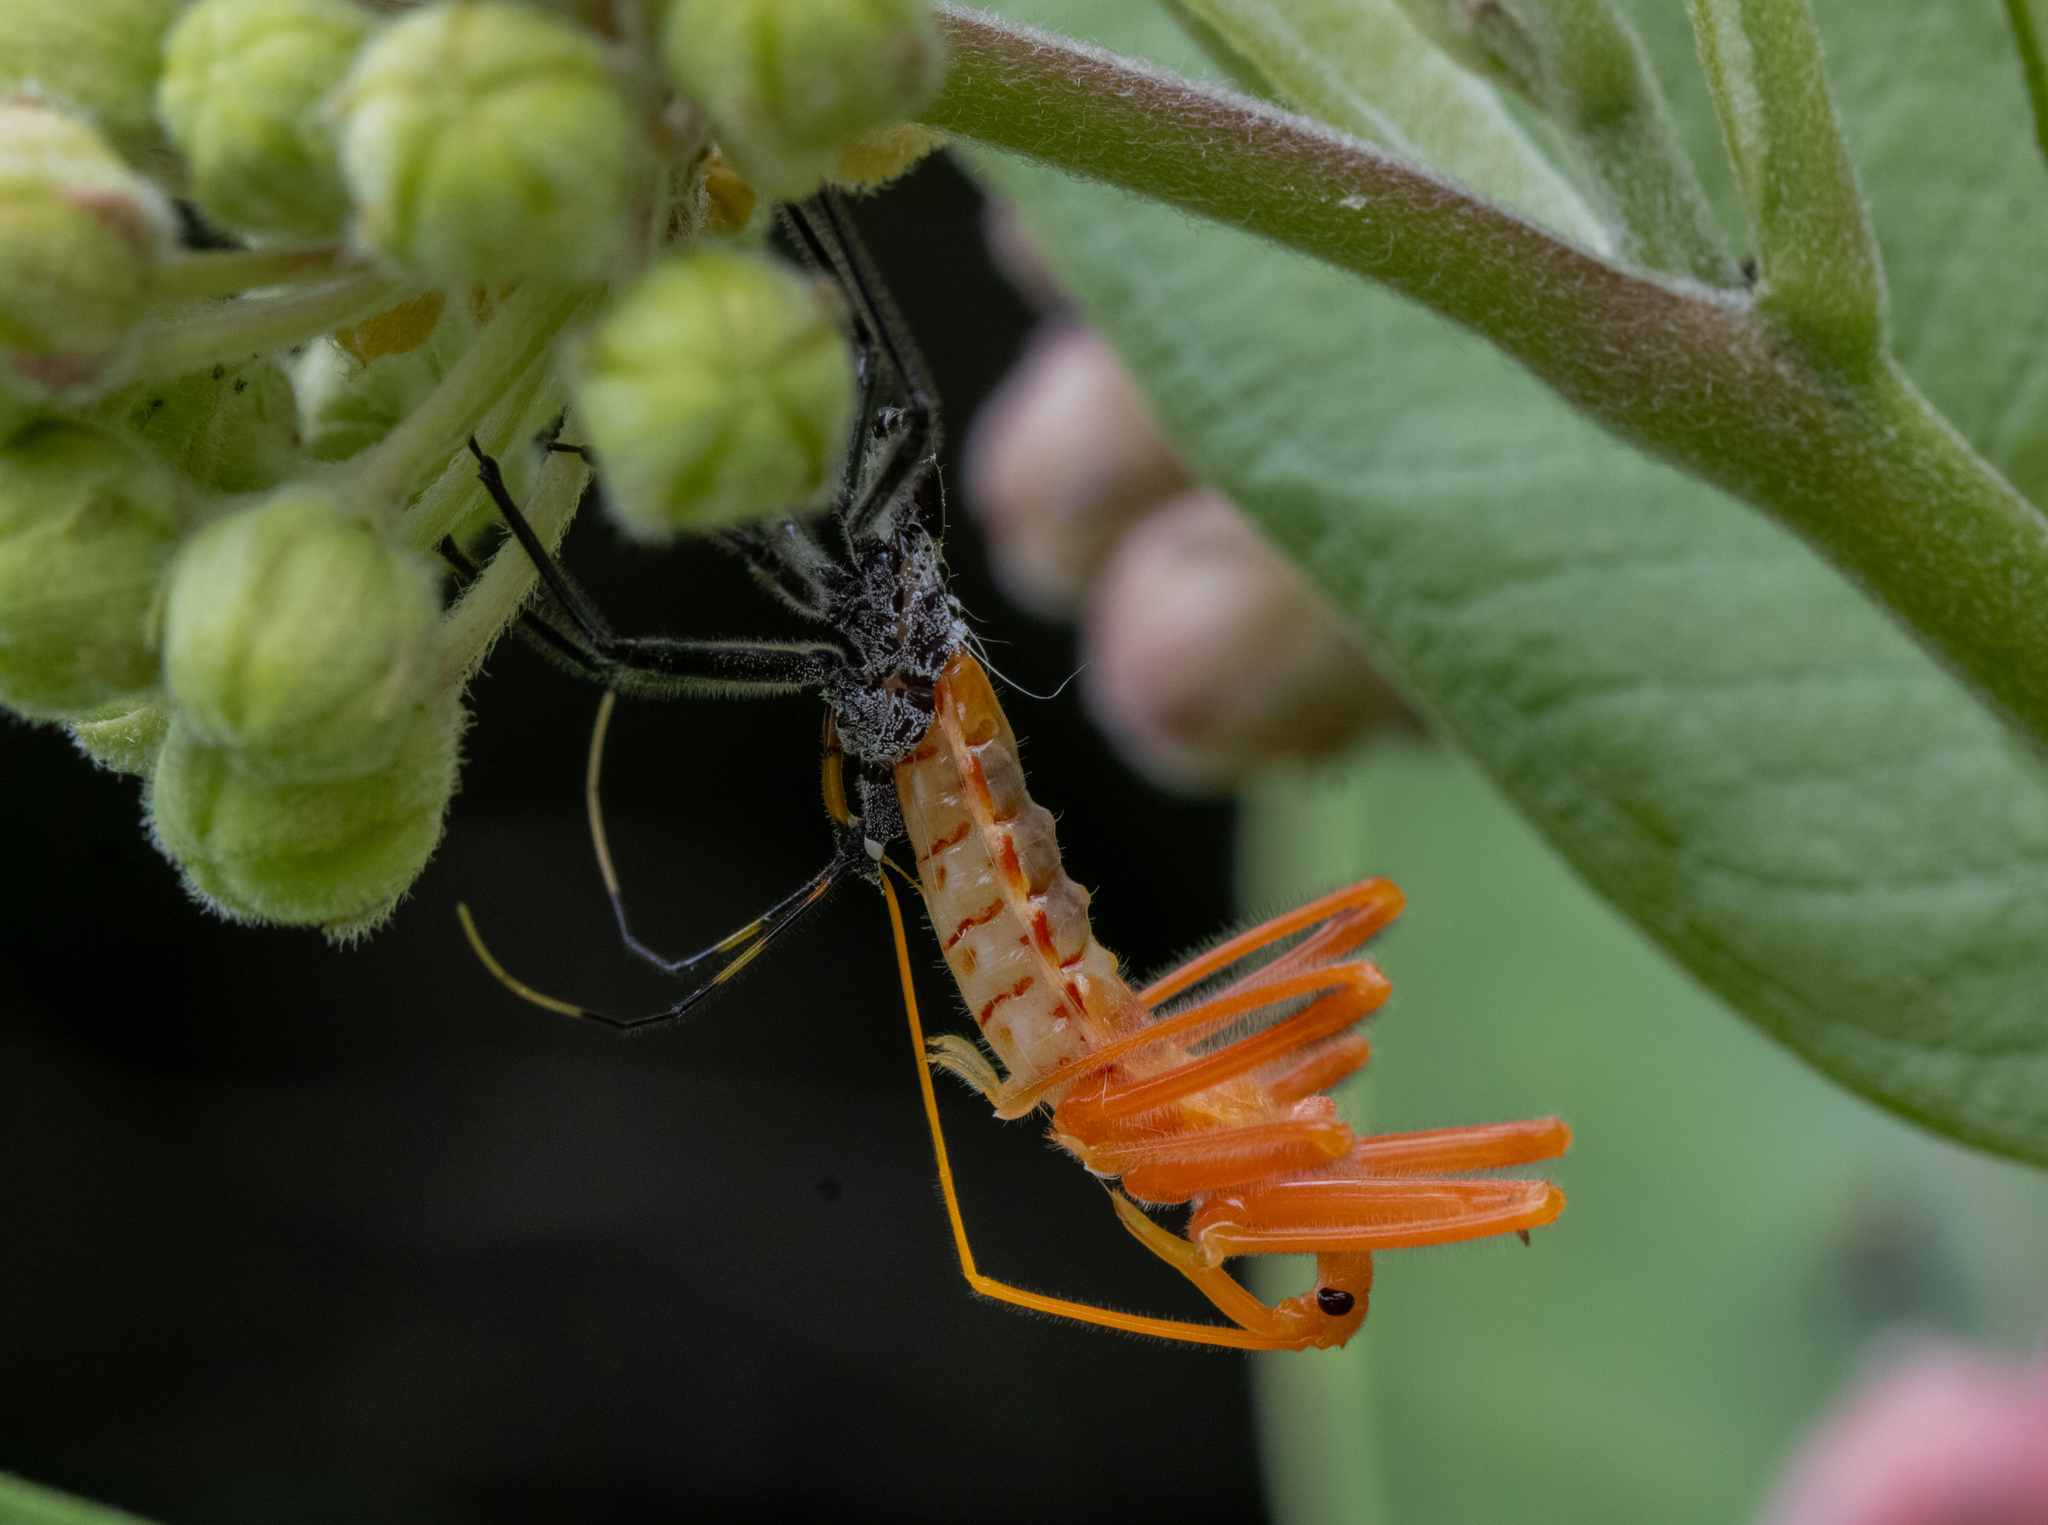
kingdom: Animalia
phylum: Arthropoda
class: Insecta
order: Hemiptera
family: Reduviidae
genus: Arilus
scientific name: Arilus cristatus
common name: North american wheel bug
